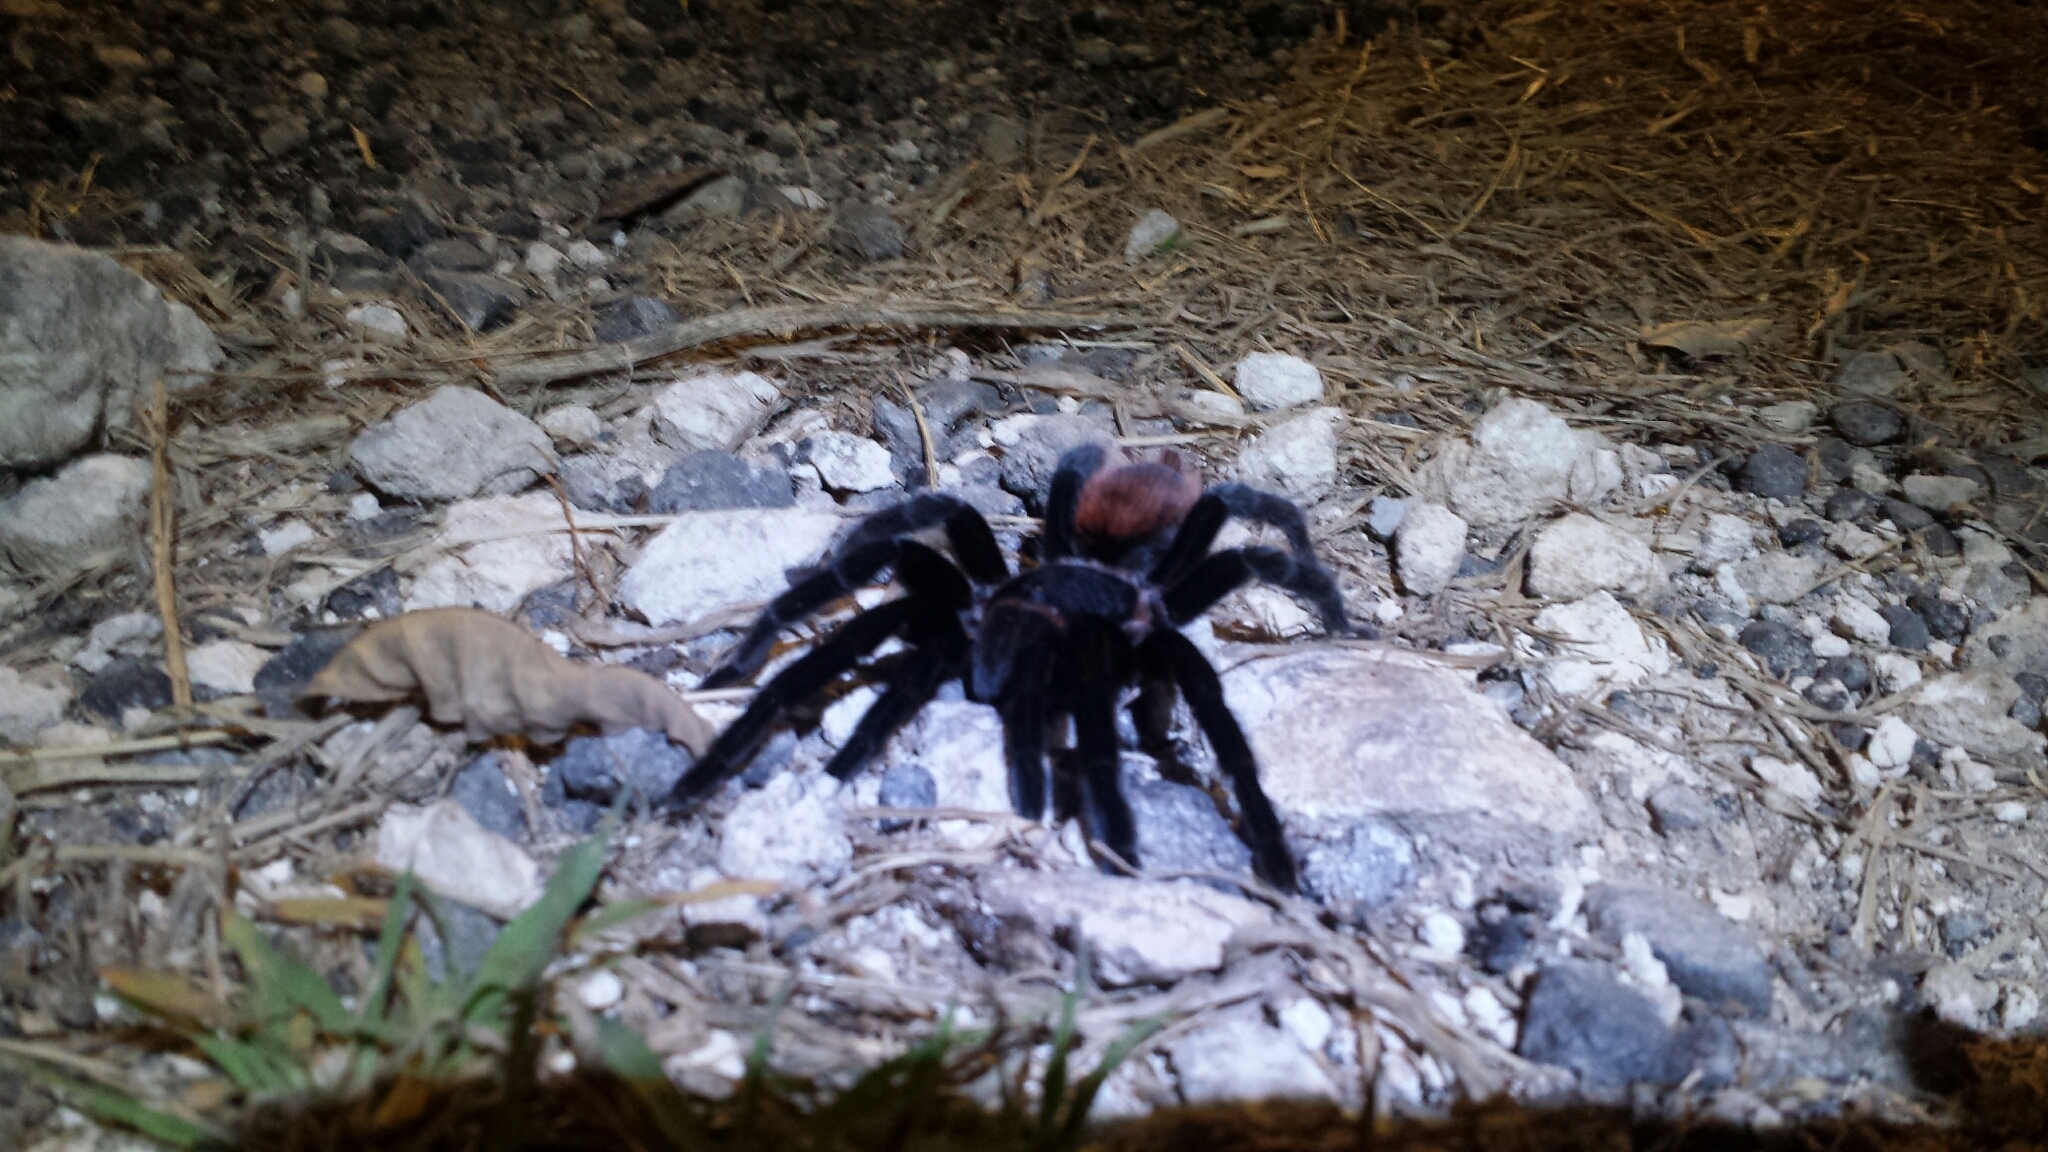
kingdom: Animalia
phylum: Arthropoda
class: Arachnida
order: Araneae
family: Theraphosidae
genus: Tliltocatl
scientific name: Tliltocatl vagans
